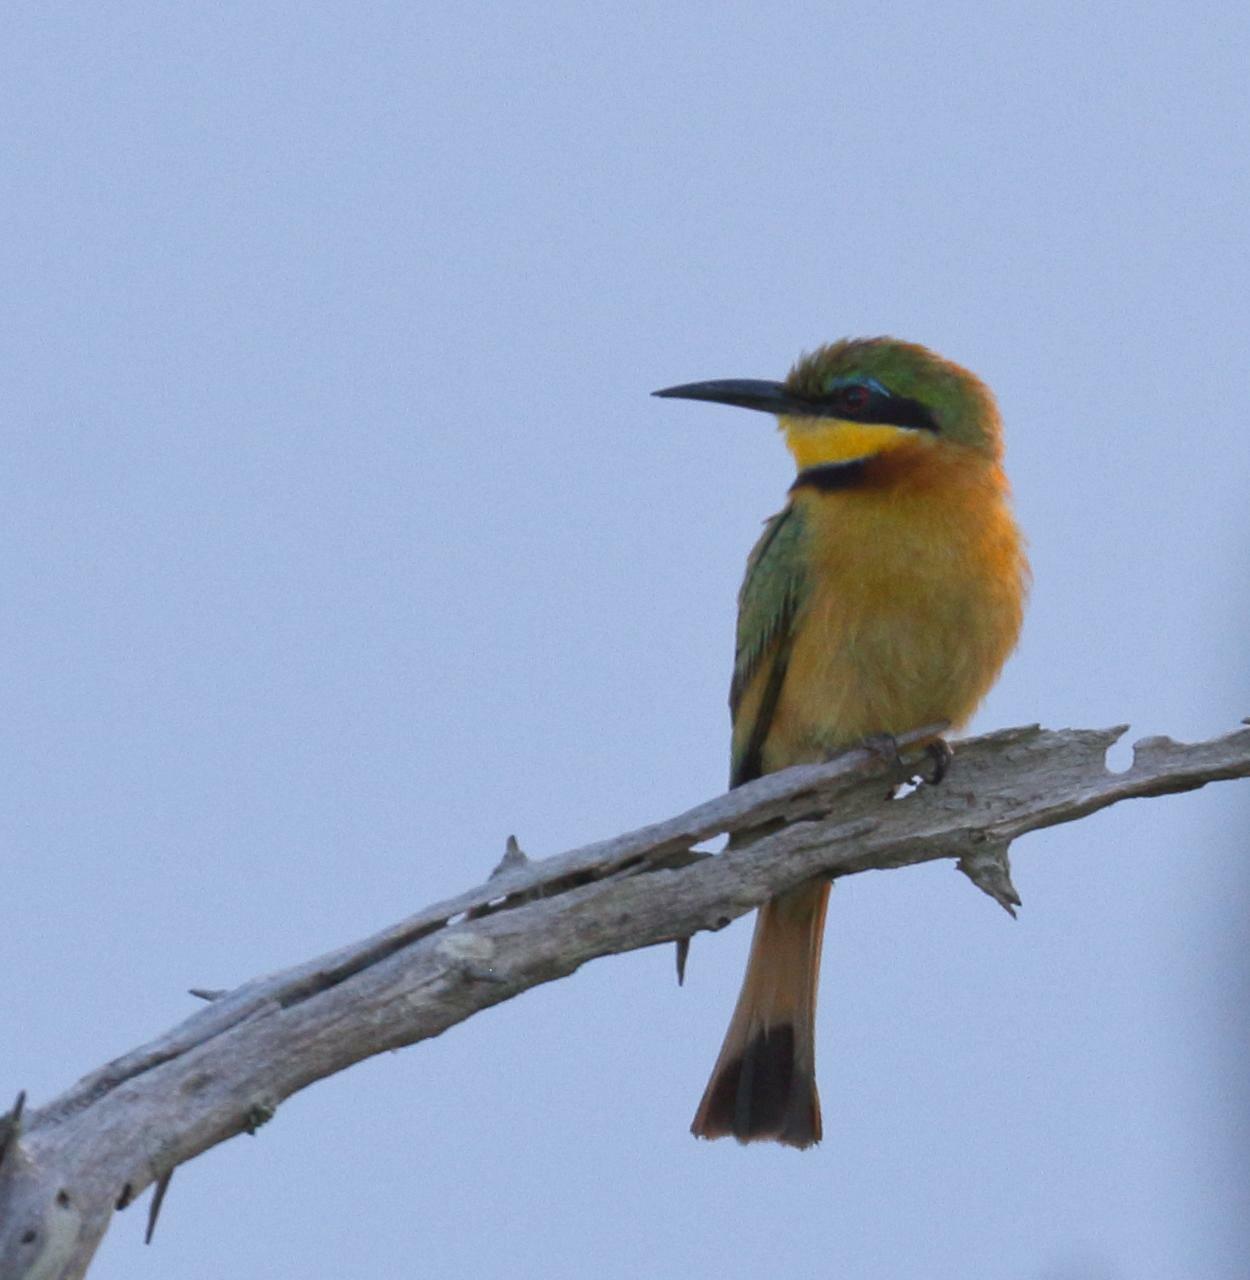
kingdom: Animalia
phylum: Chordata
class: Aves
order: Coraciiformes
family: Meropidae
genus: Merops
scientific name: Merops pusillus
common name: Little bee-eater
